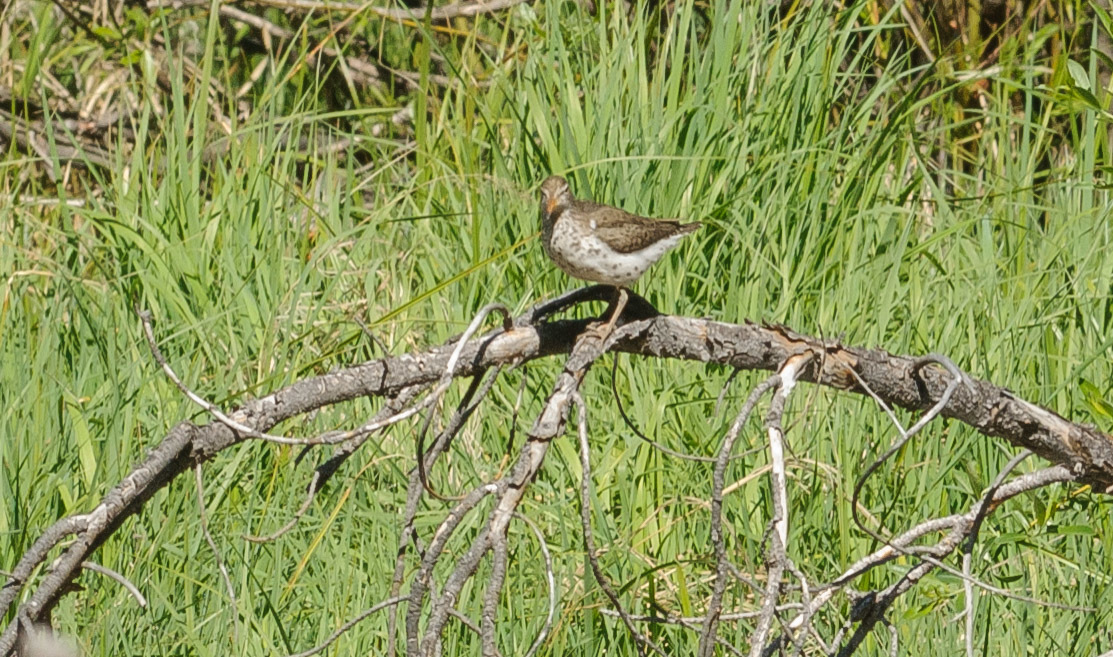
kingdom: Animalia
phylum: Chordata
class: Aves
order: Charadriiformes
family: Scolopacidae
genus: Actitis
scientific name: Actitis macularius
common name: Spotted sandpiper
